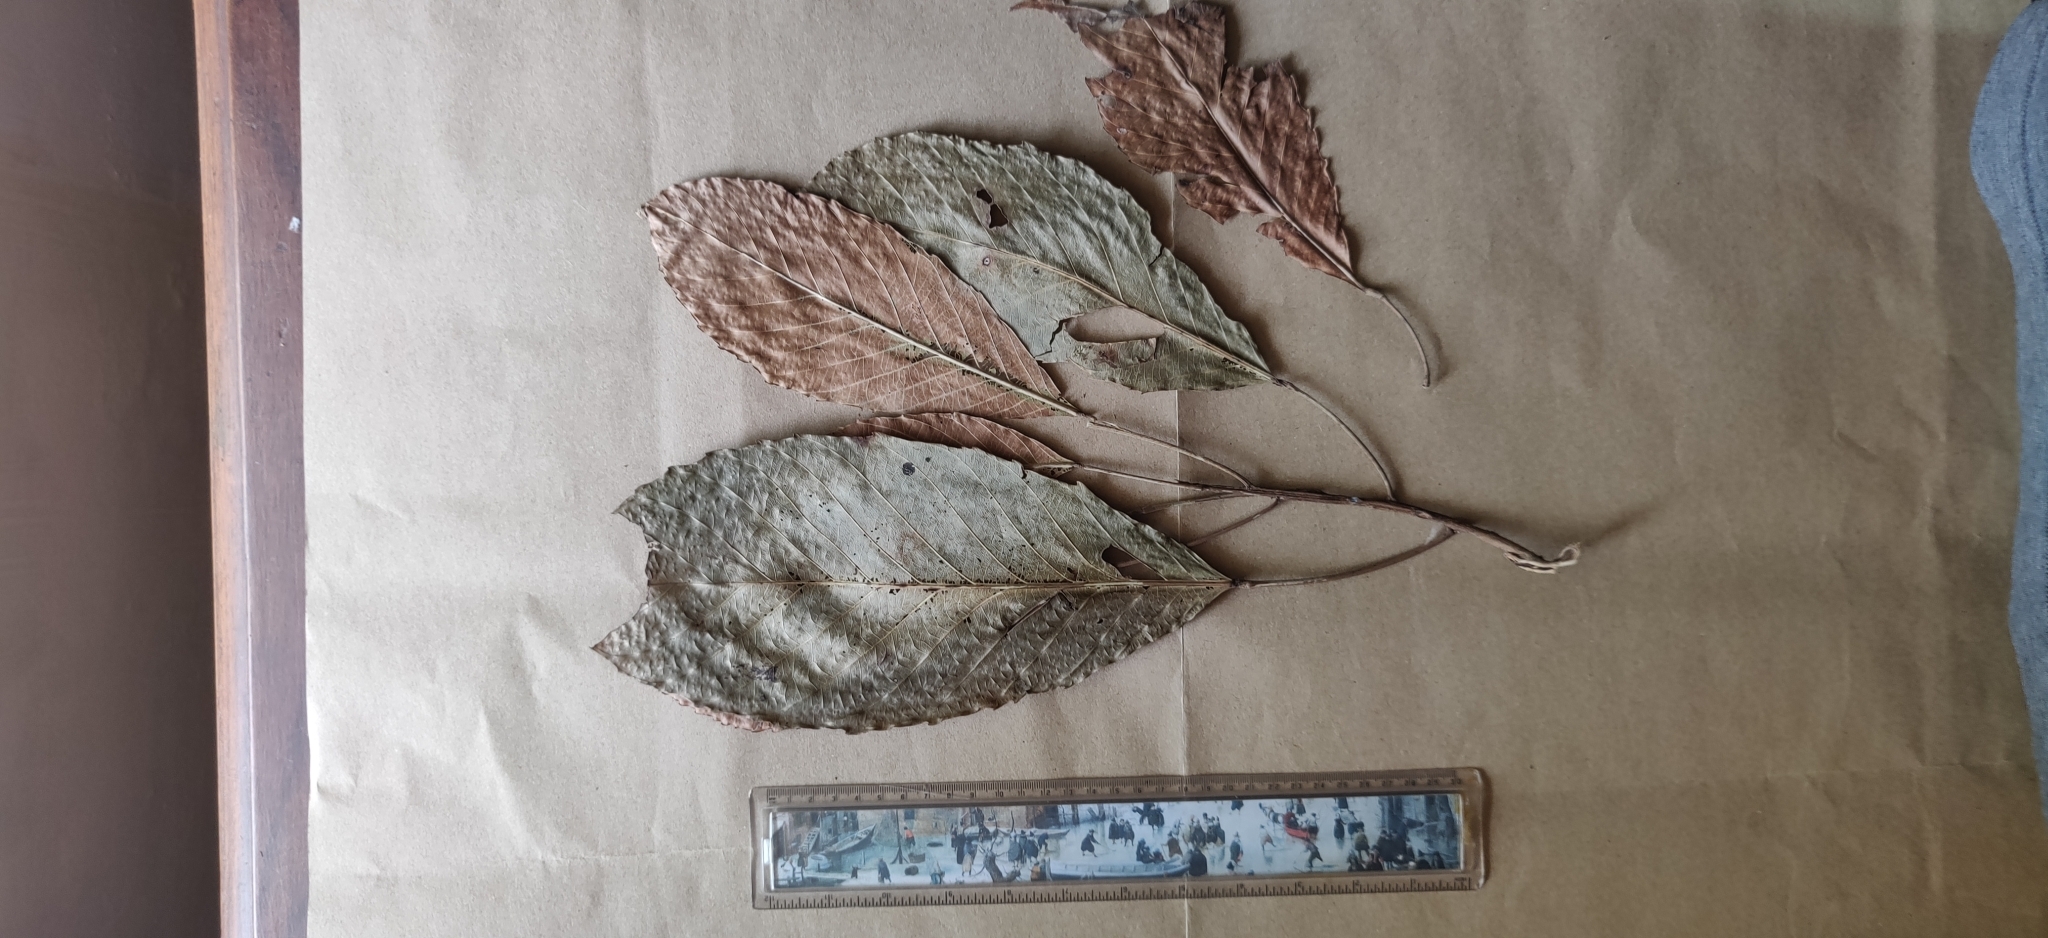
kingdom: Plantae
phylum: Tracheophyta
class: Magnoliopsida
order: Malpighiales
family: Euphorbiaceae
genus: Paracroton
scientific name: Paracroton pendulus
